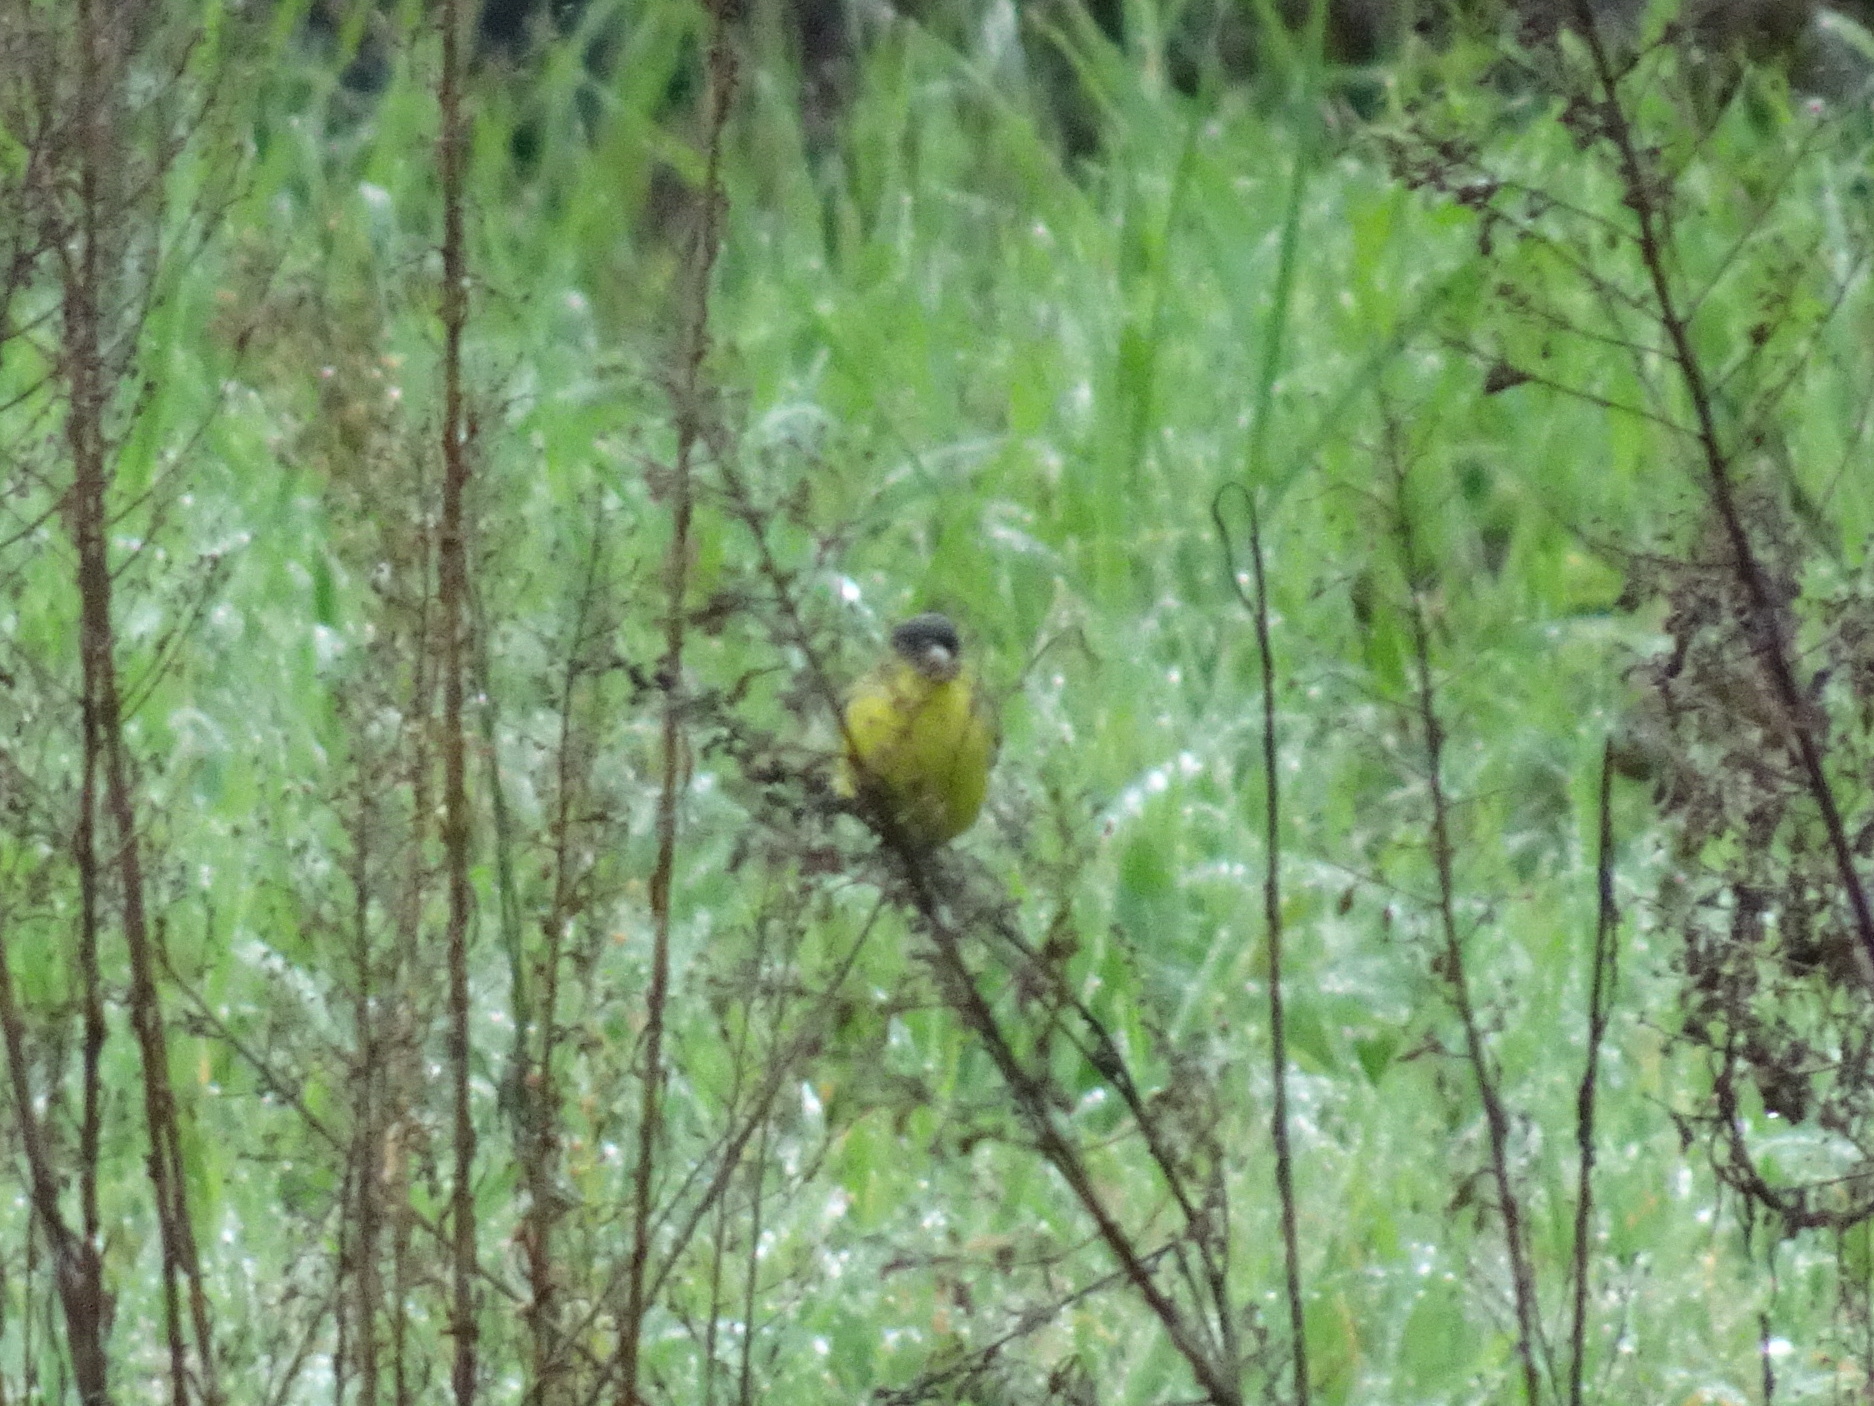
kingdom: Animalia
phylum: Chordata
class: Aves
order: Passeriformes
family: Fringillidae
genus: Spinus
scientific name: Spinus psaltria
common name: Lesser goldfinch
